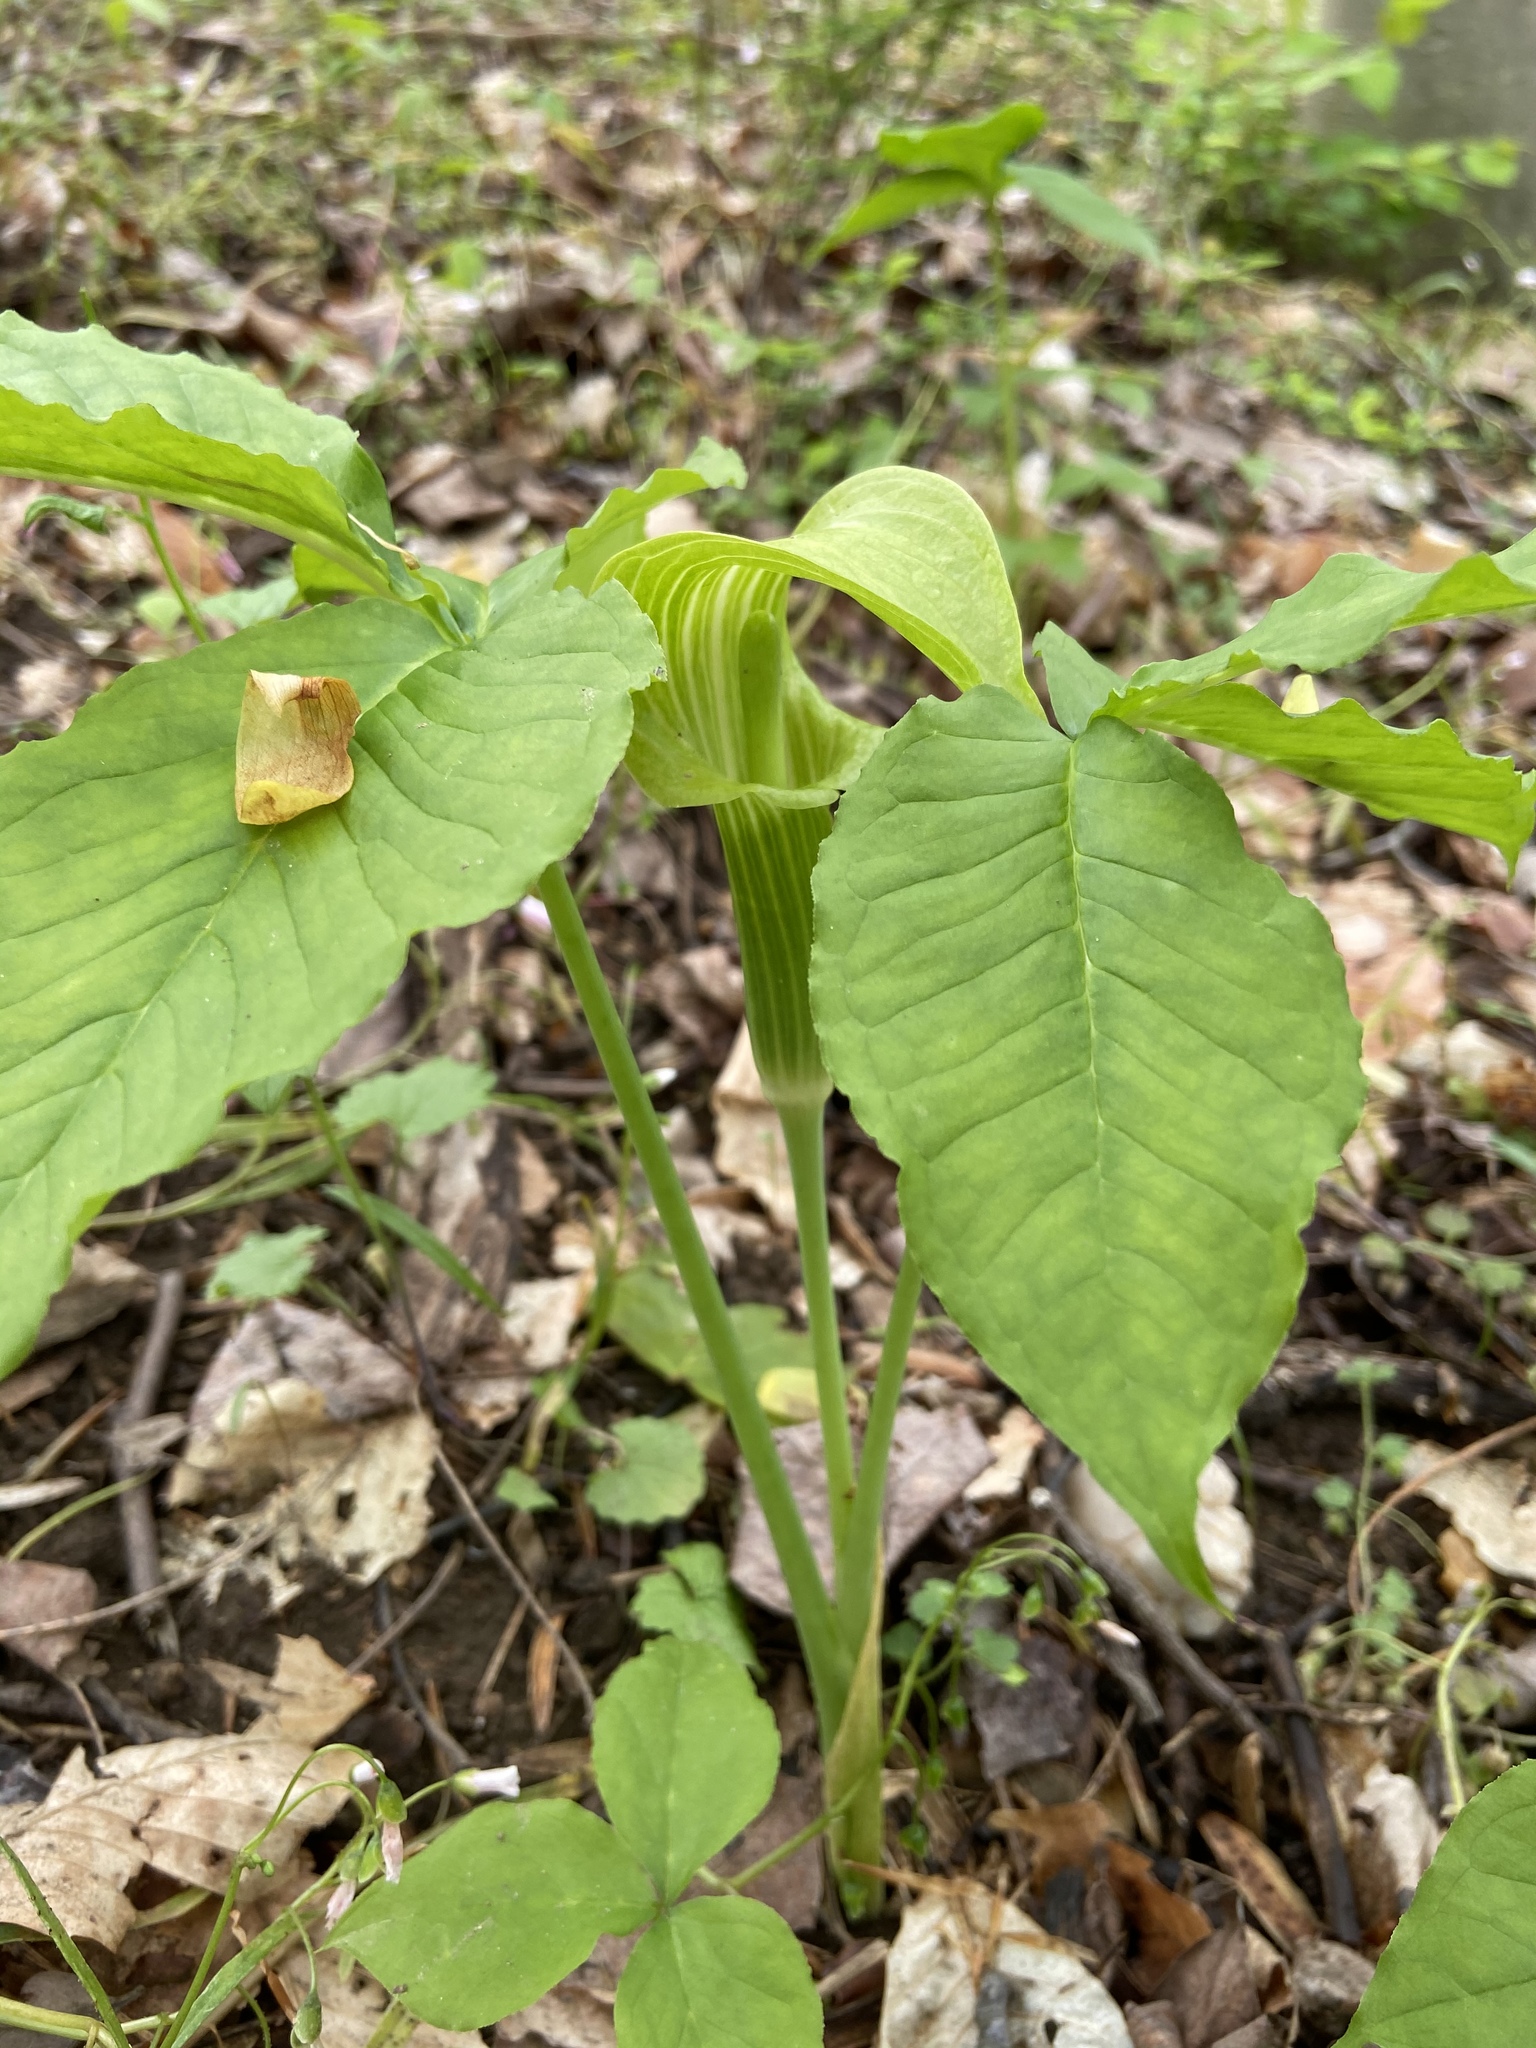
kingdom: Plantae
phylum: Tracheophyta
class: Liliopsida
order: Alismatales
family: Araceae
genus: Arisaema
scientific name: Arisaema triphyllum
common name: Jack-in-the-pulpit
